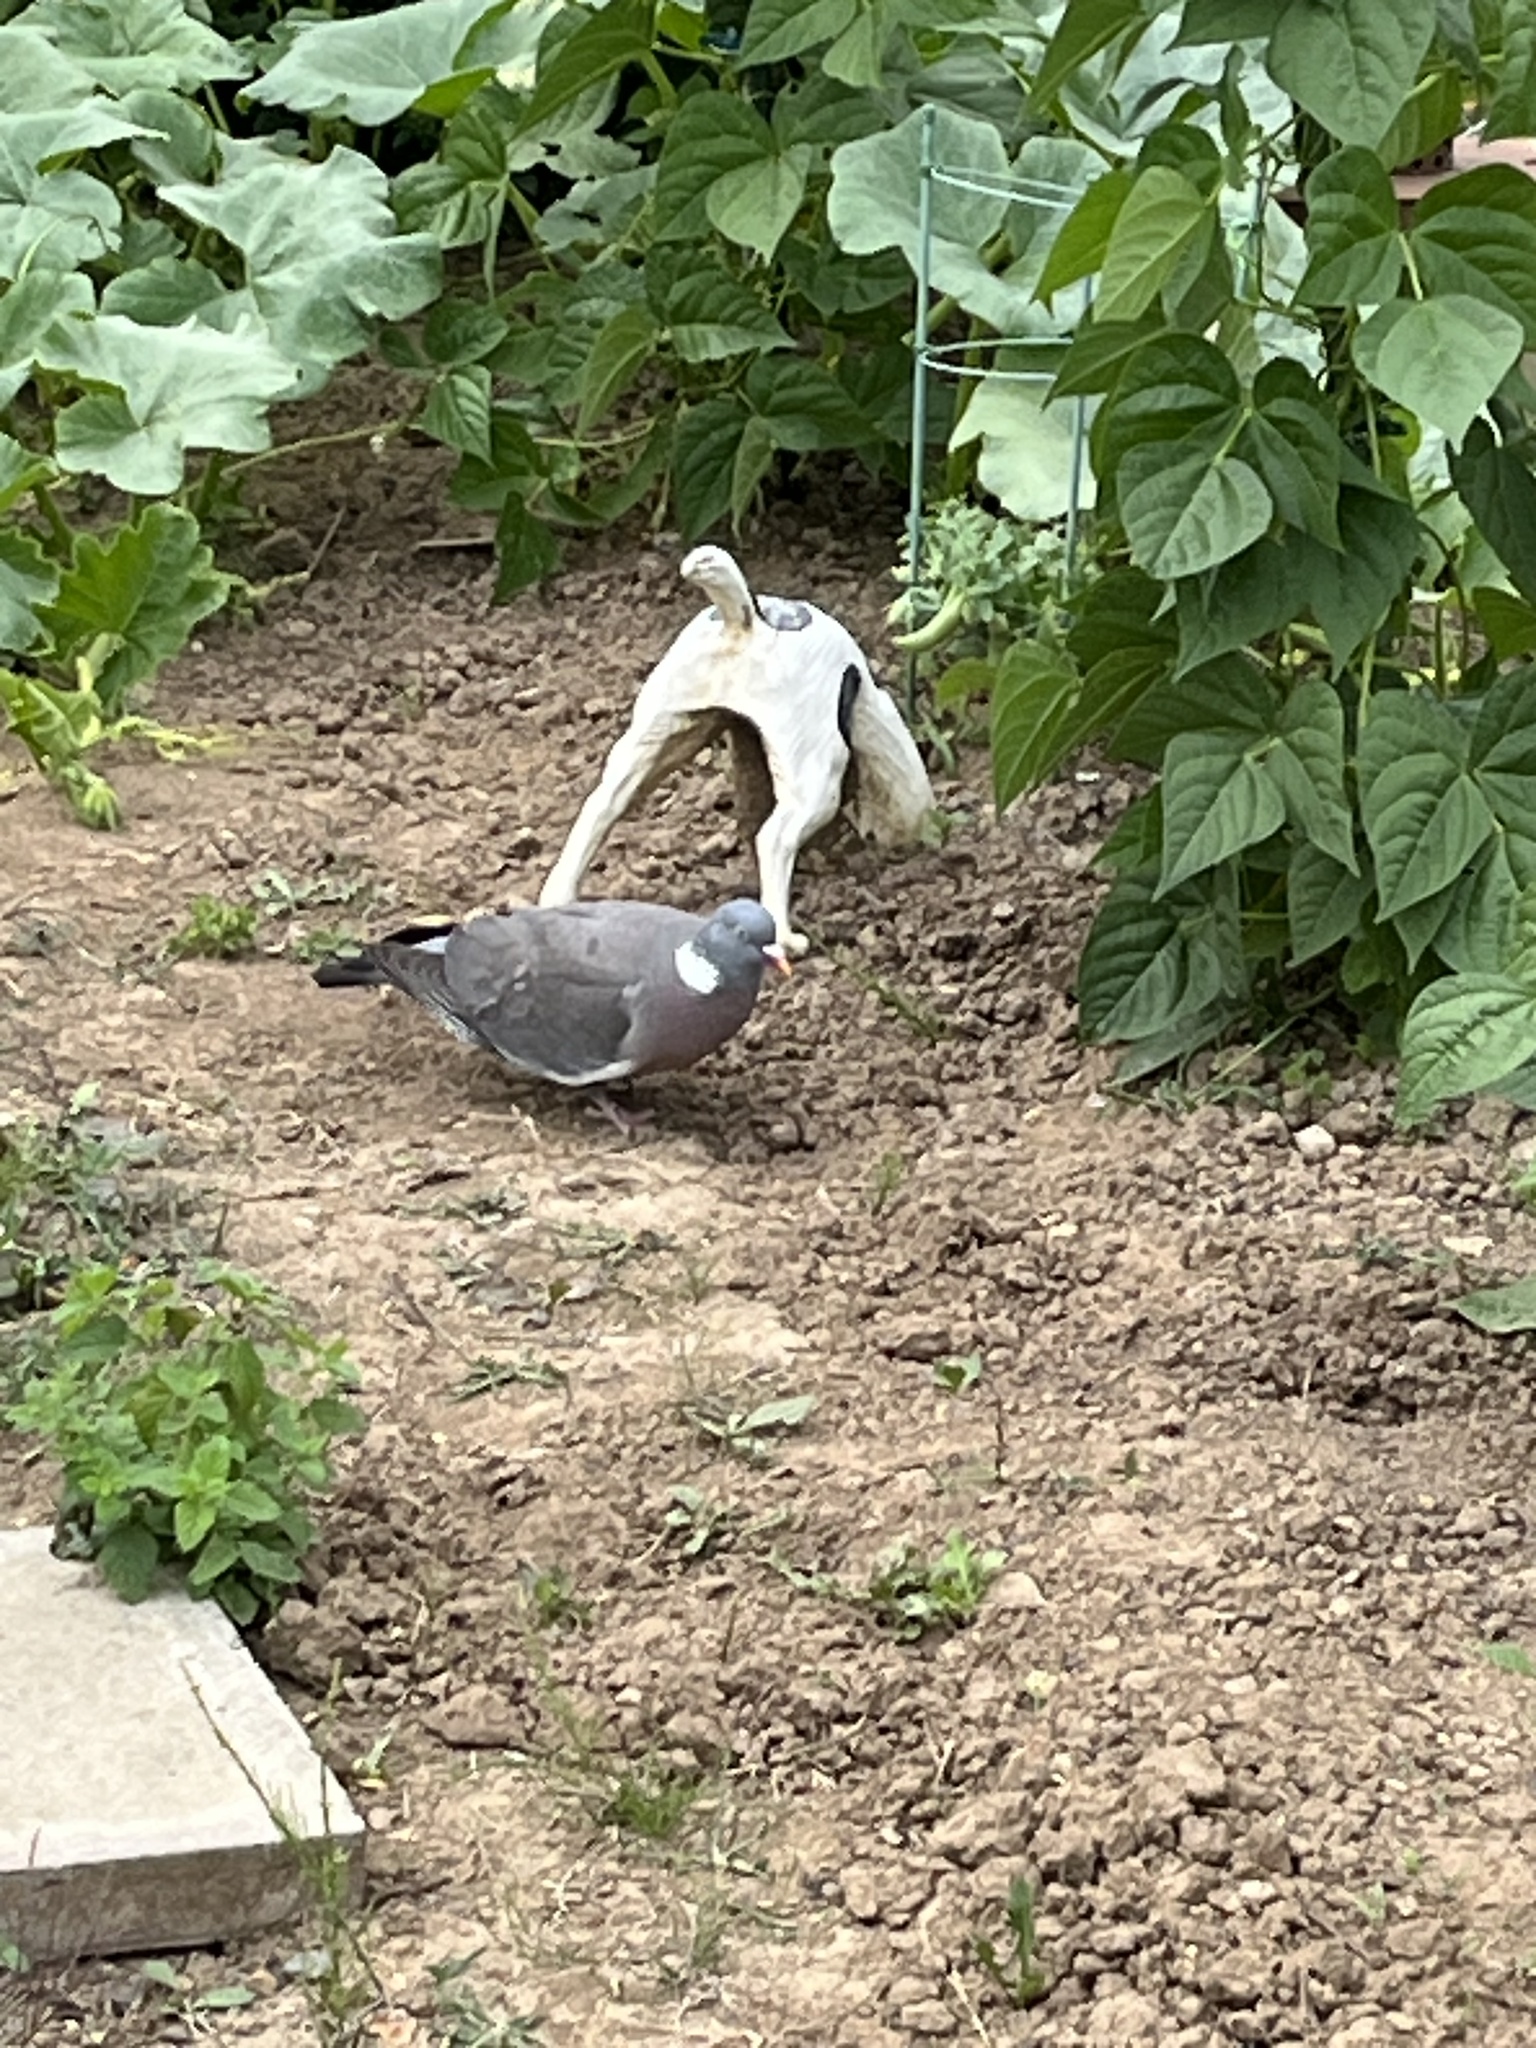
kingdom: Animalia
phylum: Chordata
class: Aves
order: Columbiformes
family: Columbidae
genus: Columba
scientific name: Columba palumbus
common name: Common wood pigeon
